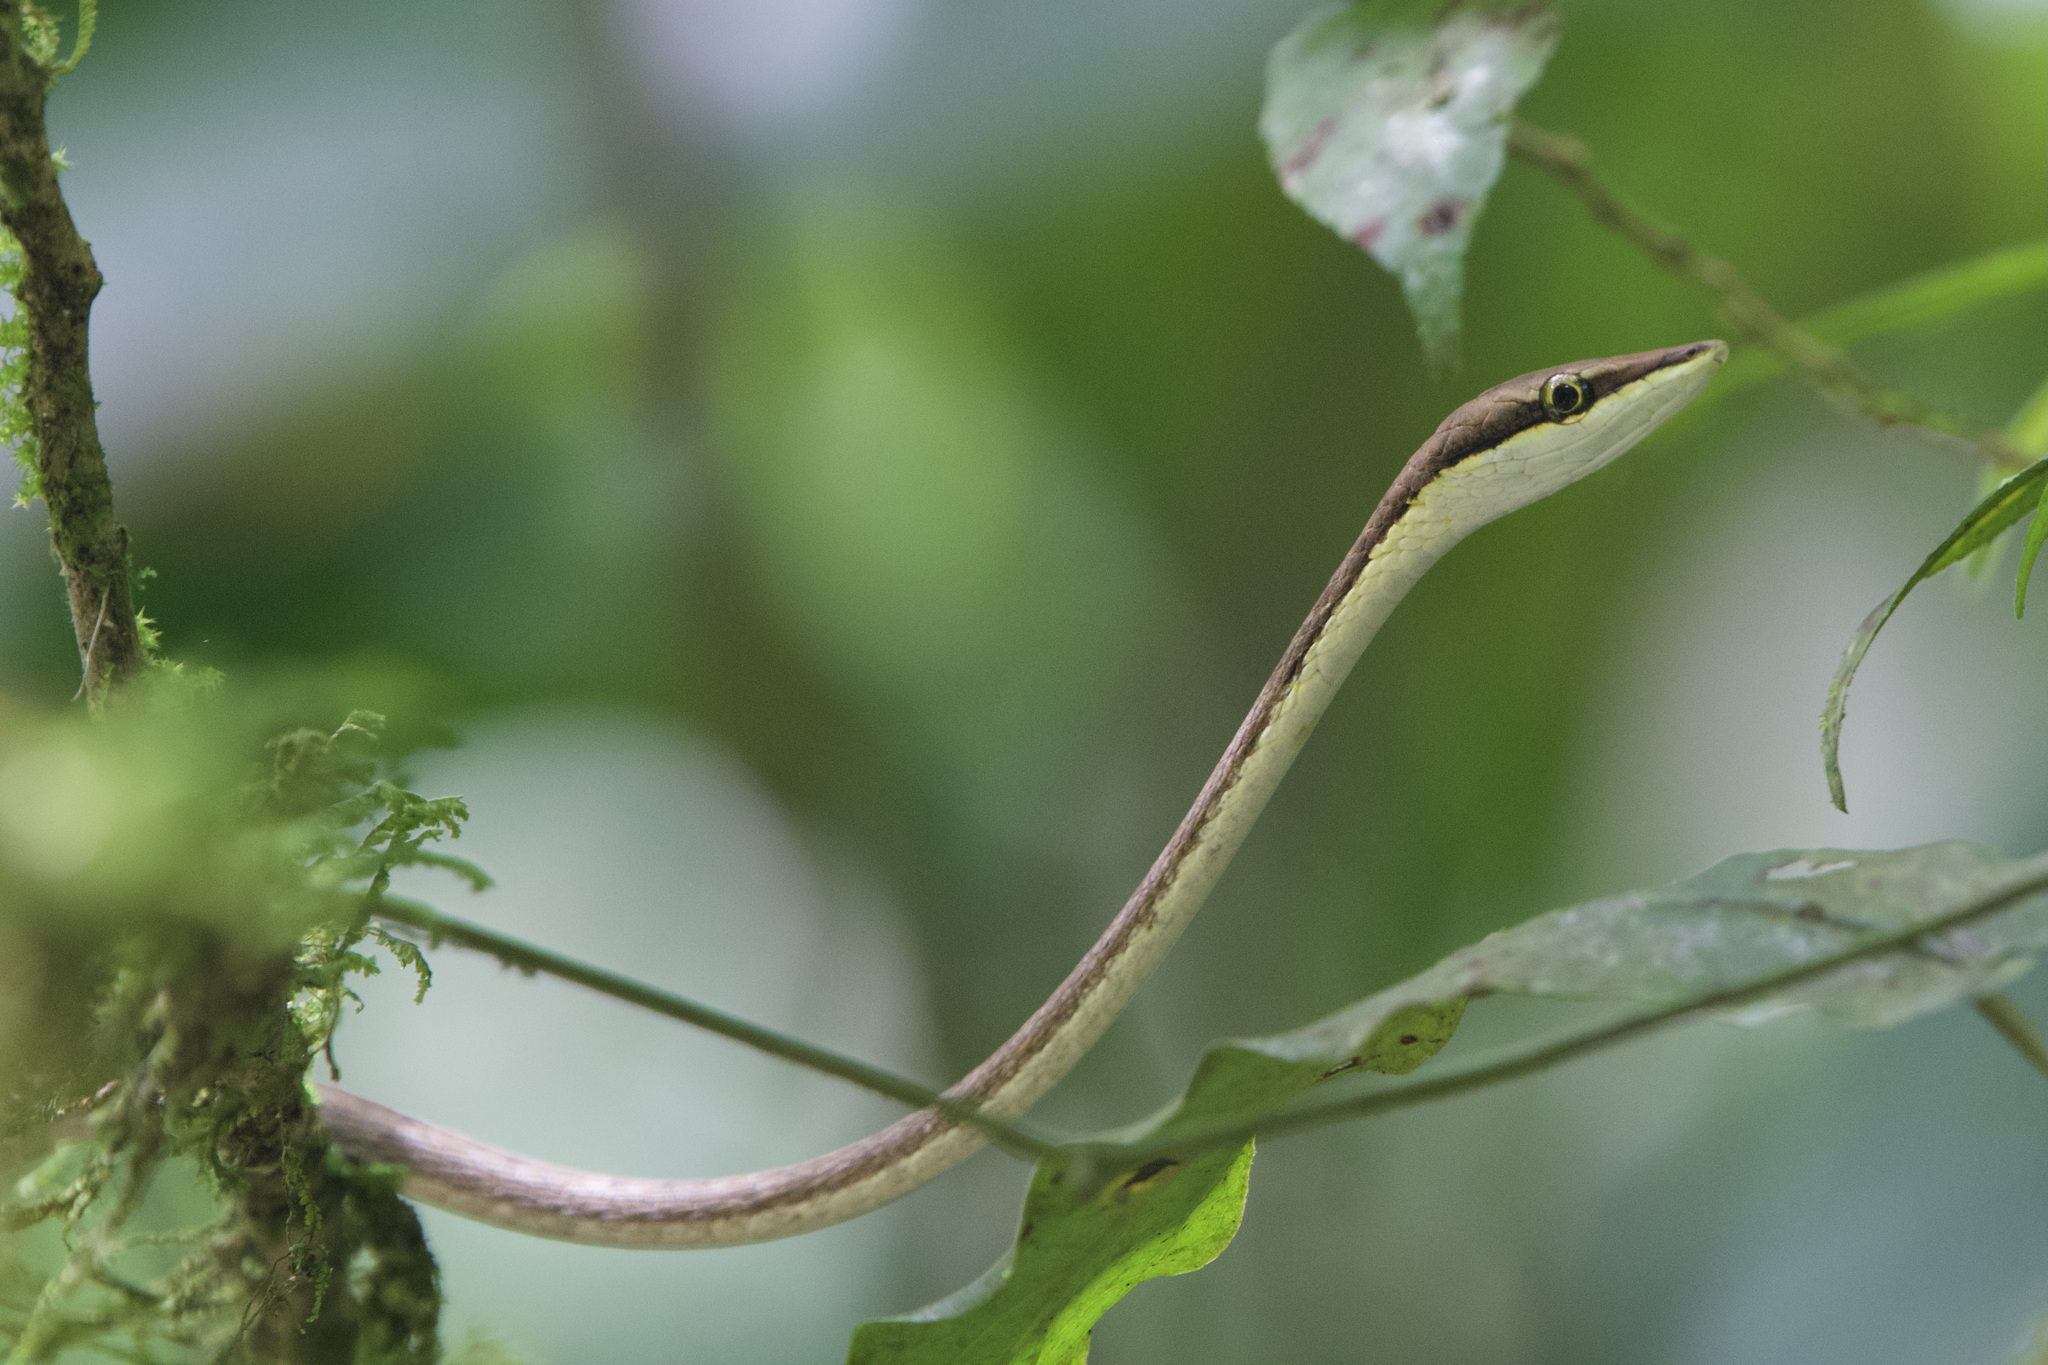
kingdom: Animalia
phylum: Chordata
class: Squamata
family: Colubridae
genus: Oxybelis
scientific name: Oxybelis vittatus
